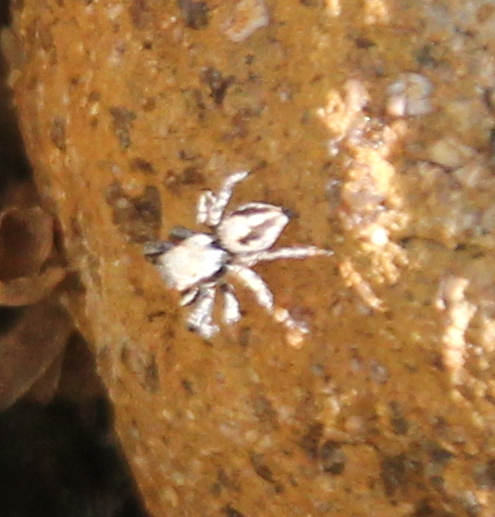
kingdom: Animalia
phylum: Arthropoda
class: Arachnida
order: Araneae
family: Salticidae
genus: Habronattus
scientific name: Habronattus californicus
